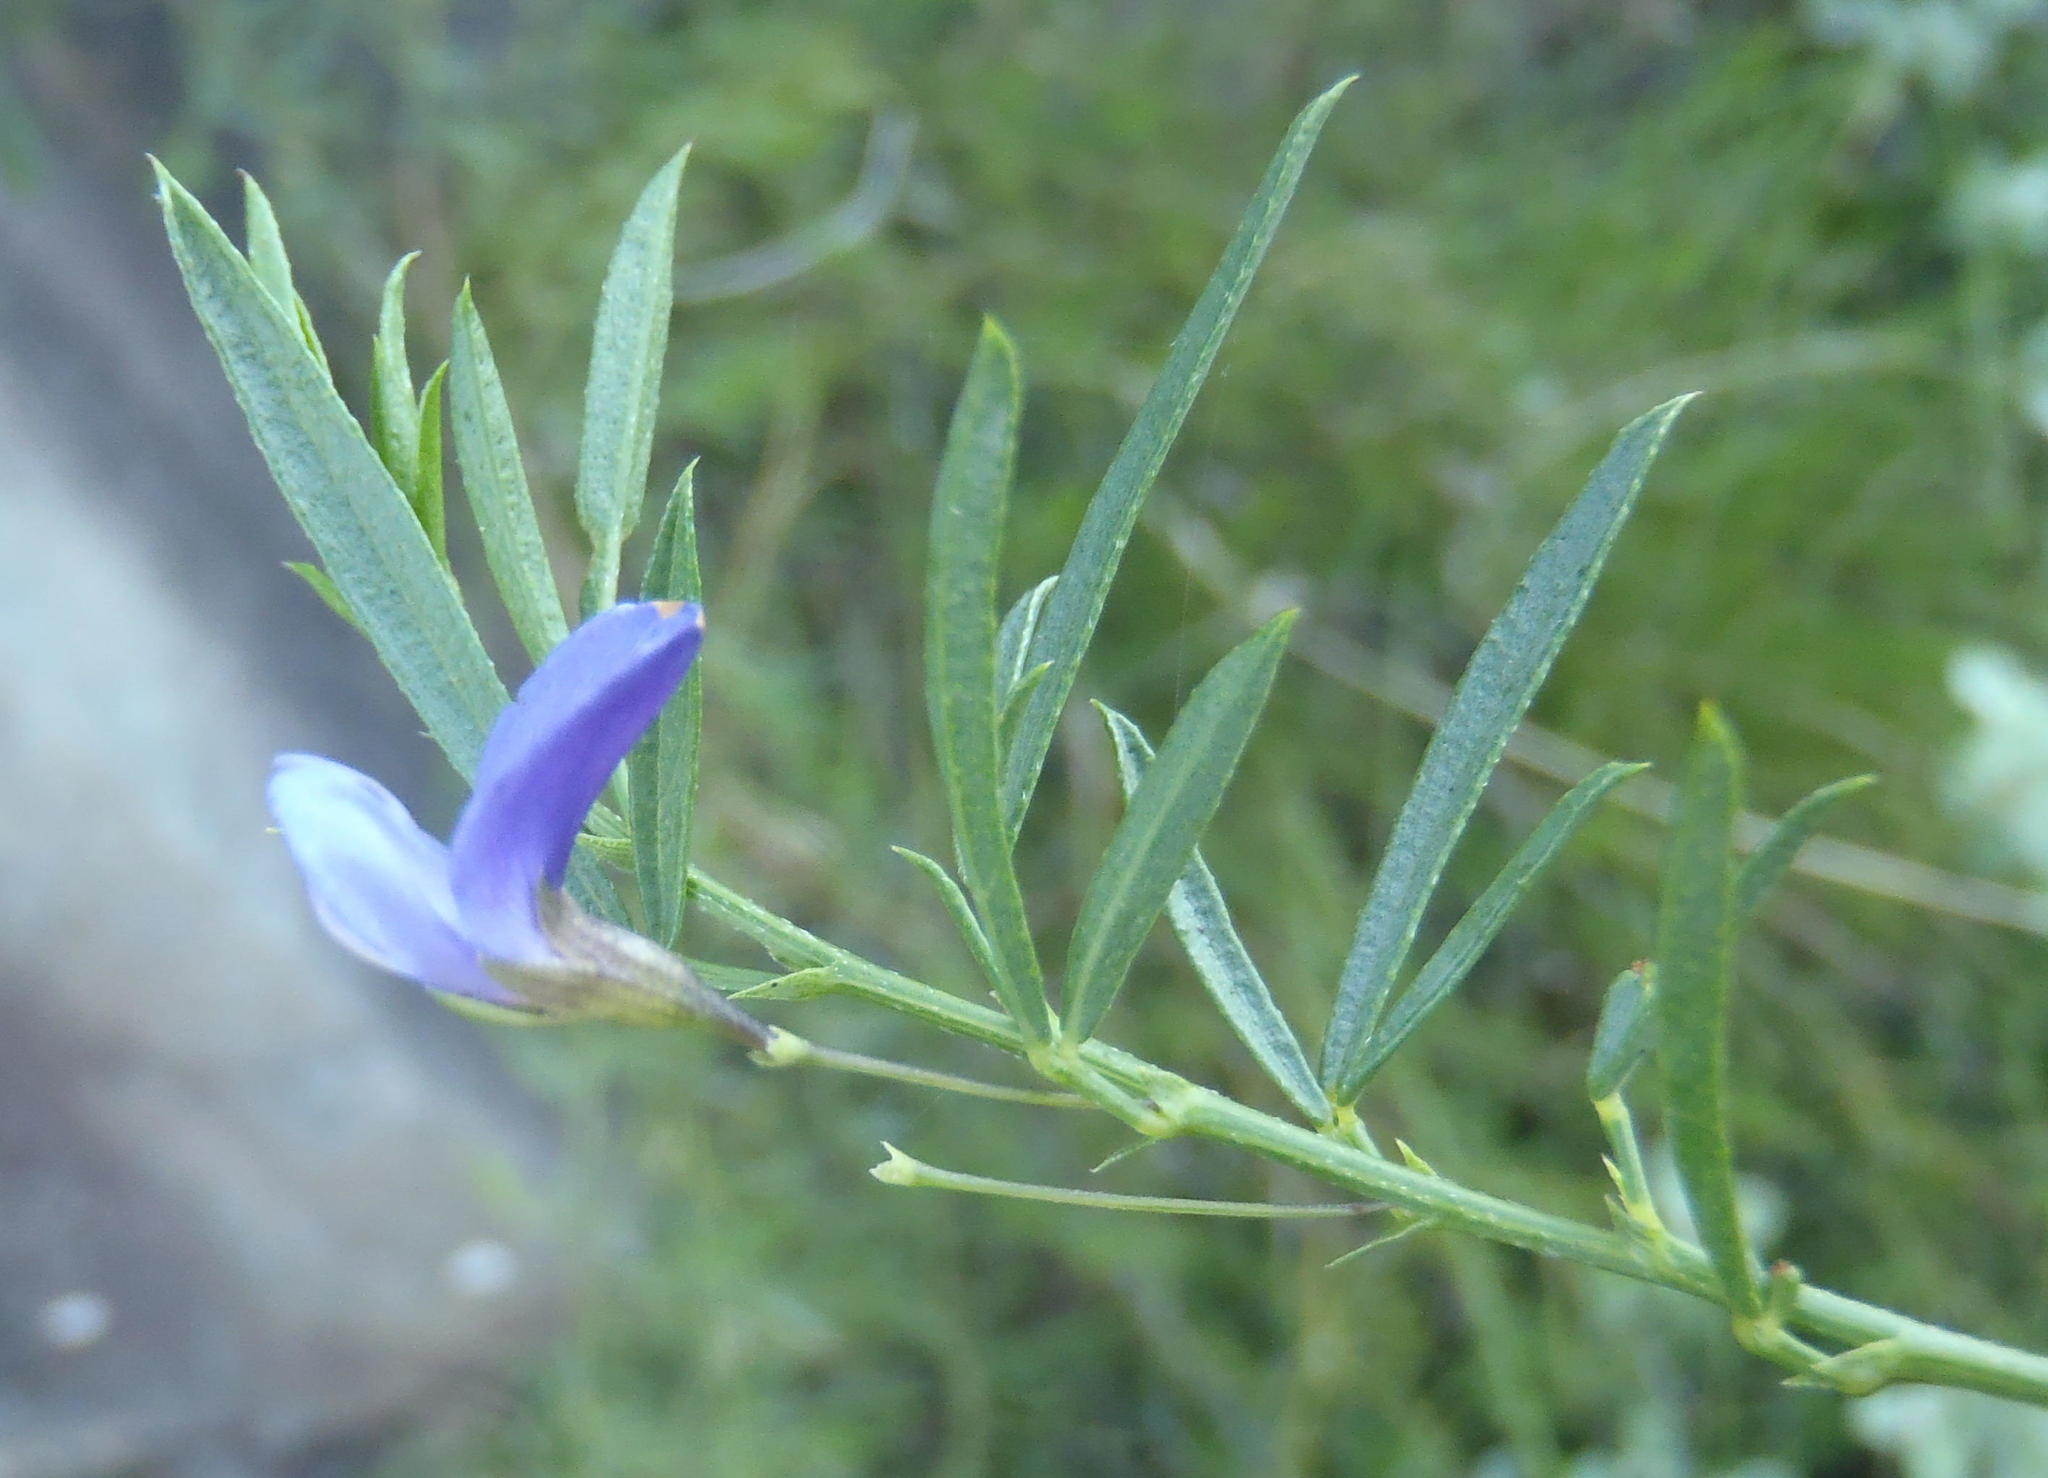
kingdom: Plantae
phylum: Tracheophyta
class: Magnoliopsida
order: Fabales
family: Fabaceae
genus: Psoralea
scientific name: Psoralea axillaris
